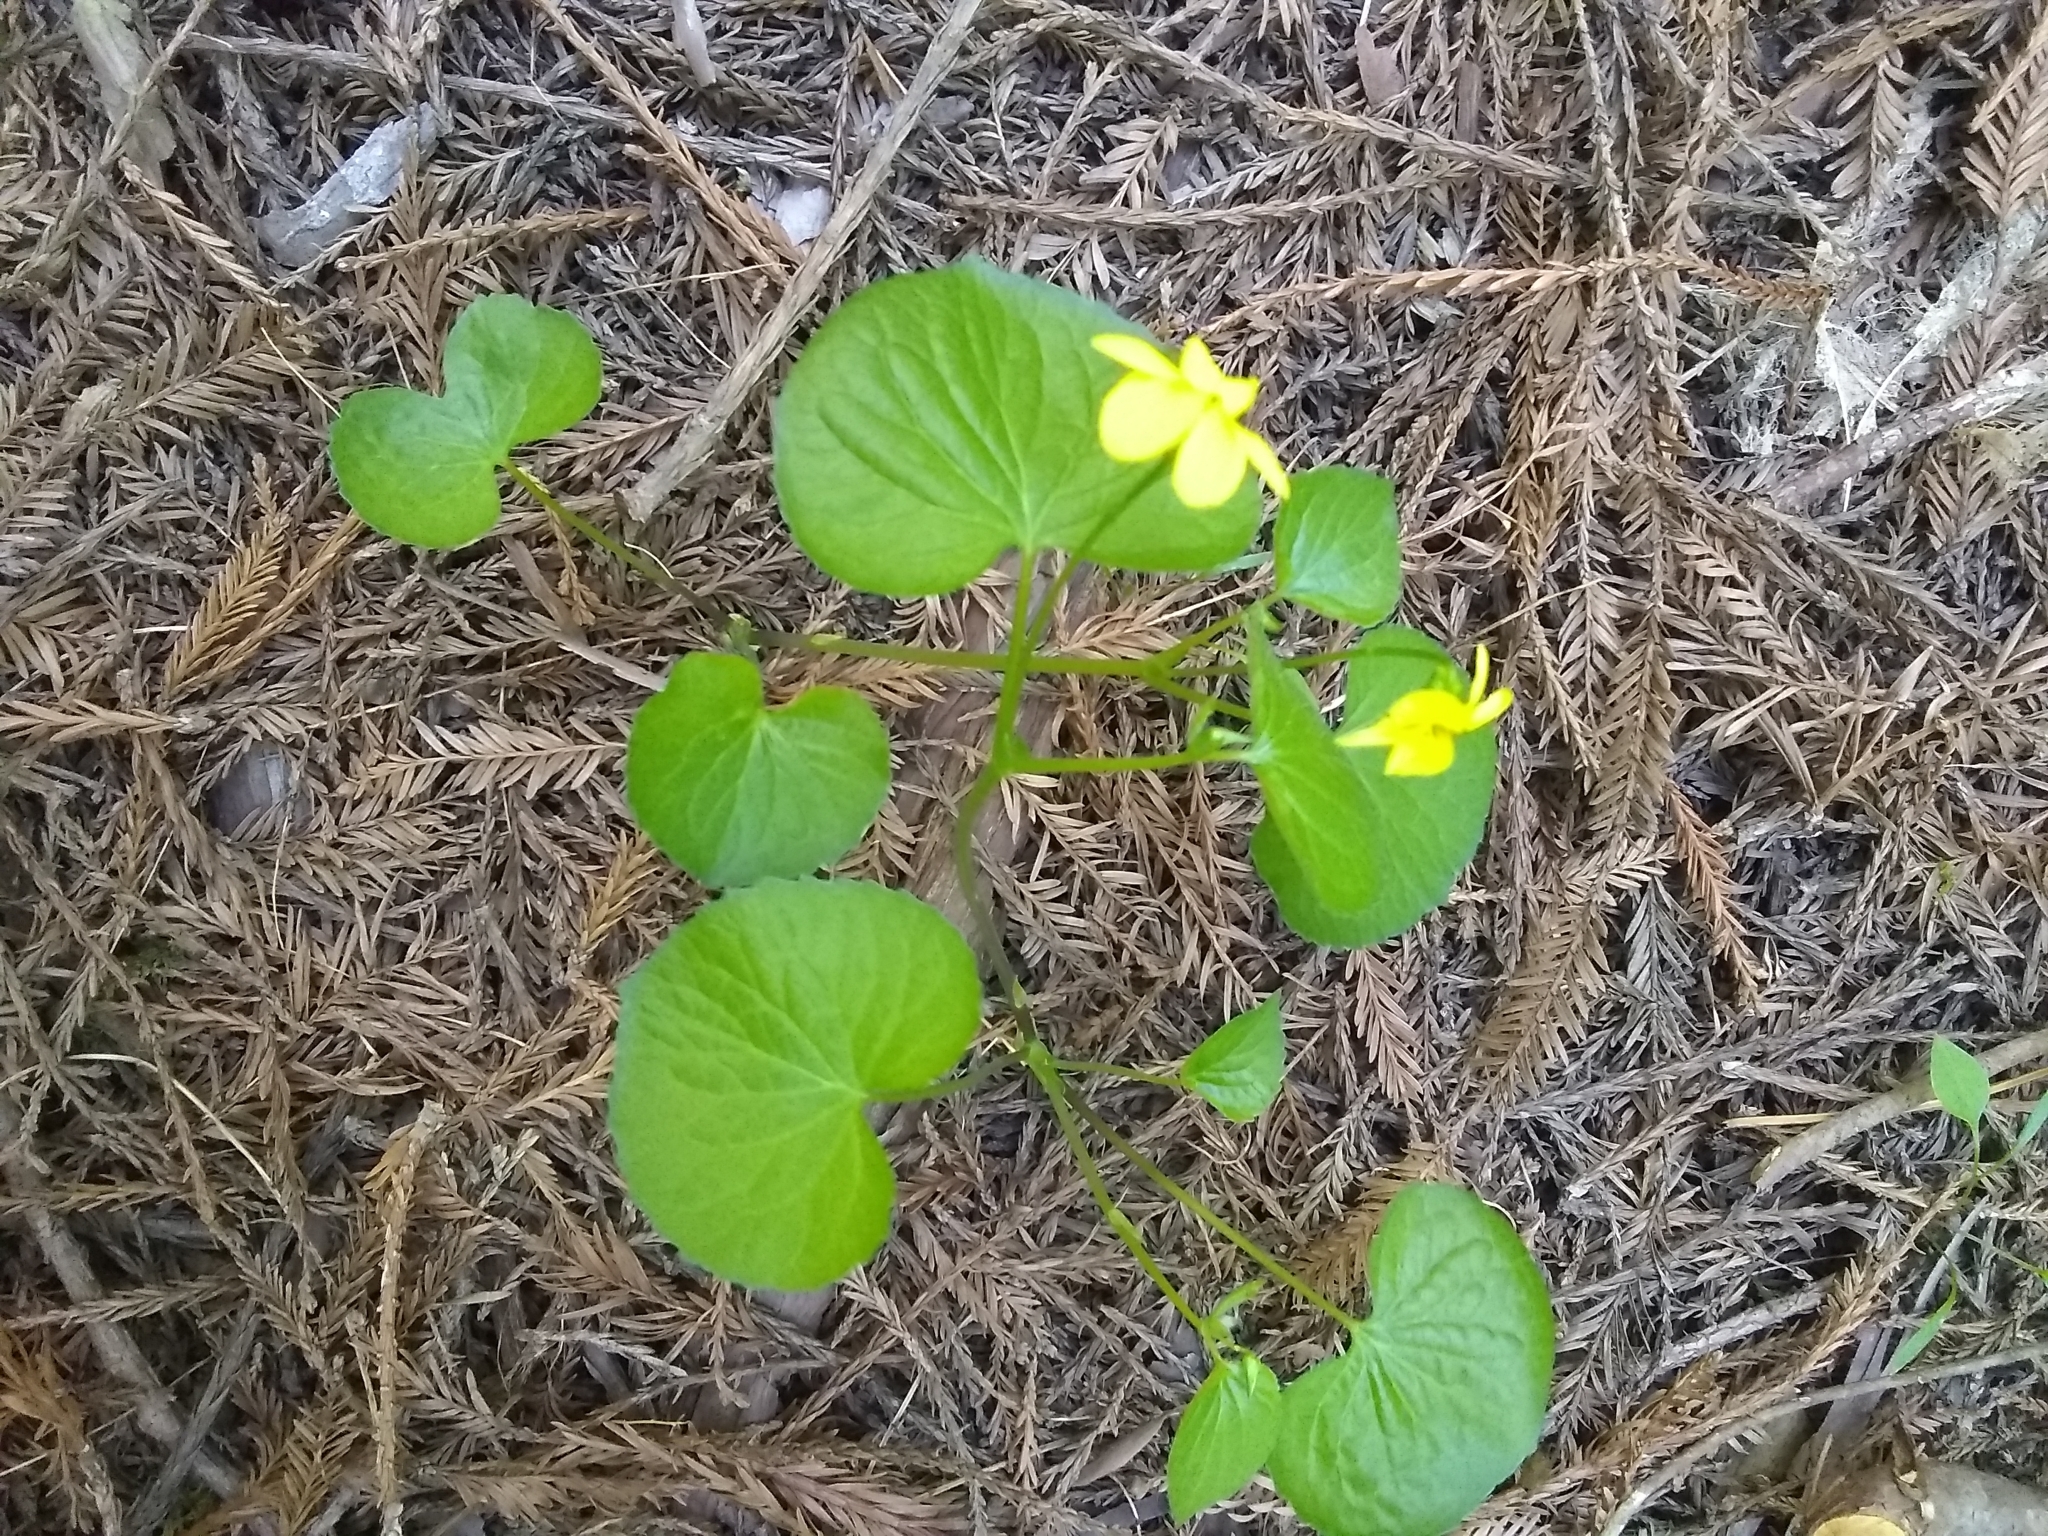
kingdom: Plantae
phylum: Tracheophyta
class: Magnoliopsida
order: Malpighiales
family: Violaceae
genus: Viola
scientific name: Viola glabella
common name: Stream violet
